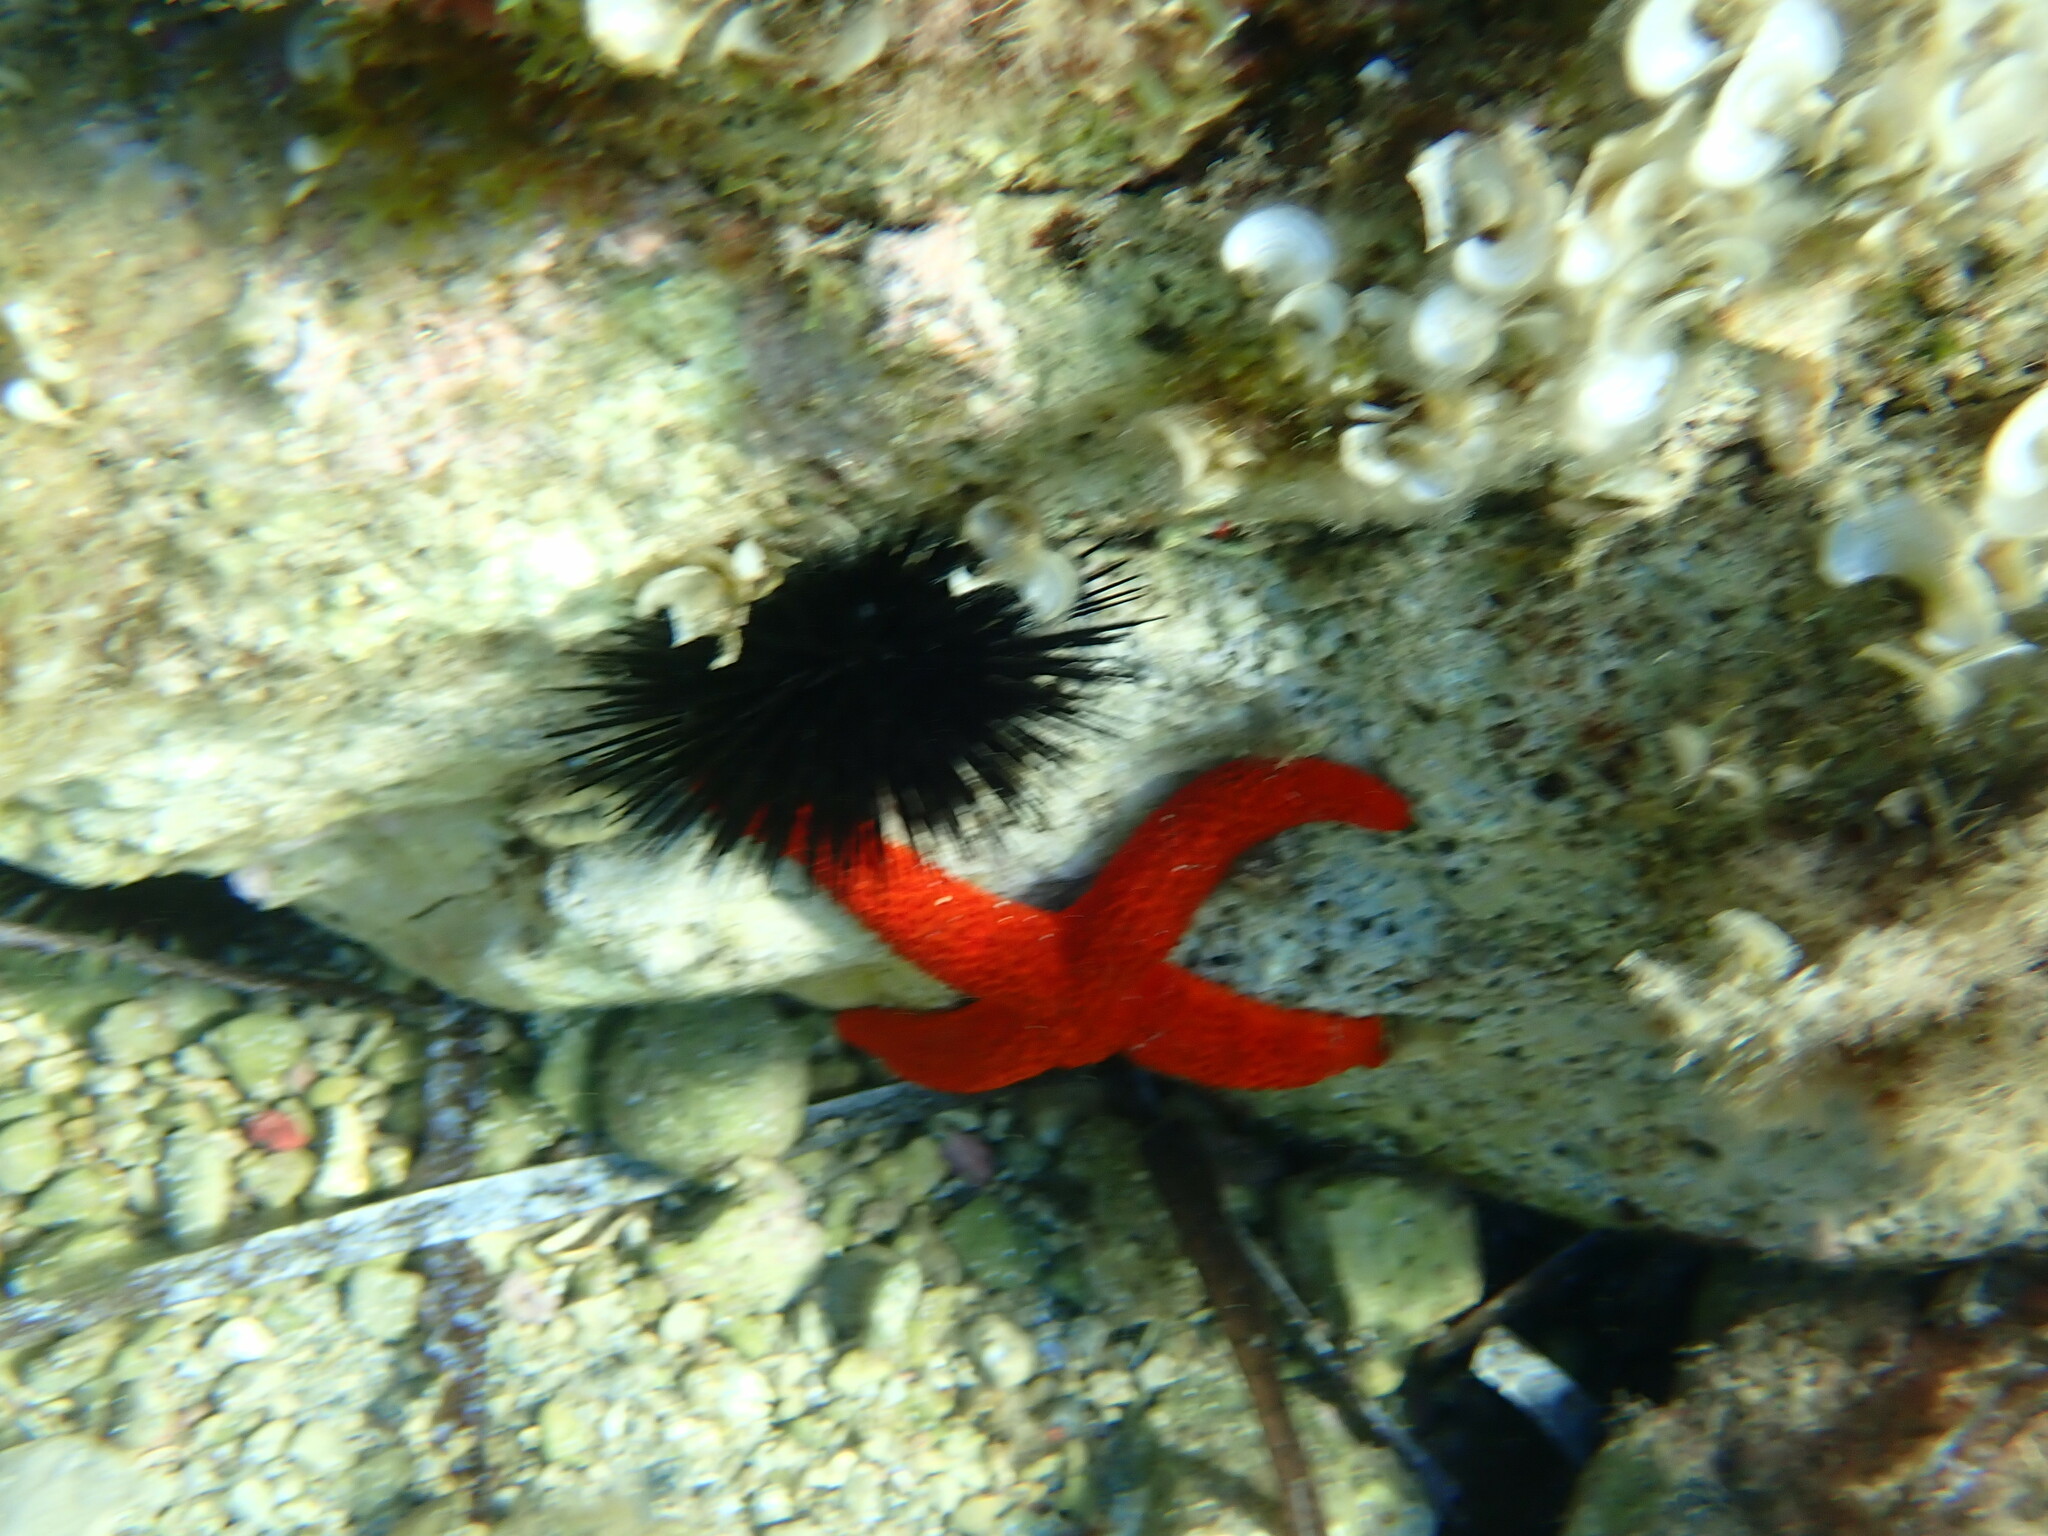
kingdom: Chromista
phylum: Ochrophyta
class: Phaeophyceae
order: Dictyotales
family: Dictyotaceae
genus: Padina
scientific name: Padina
